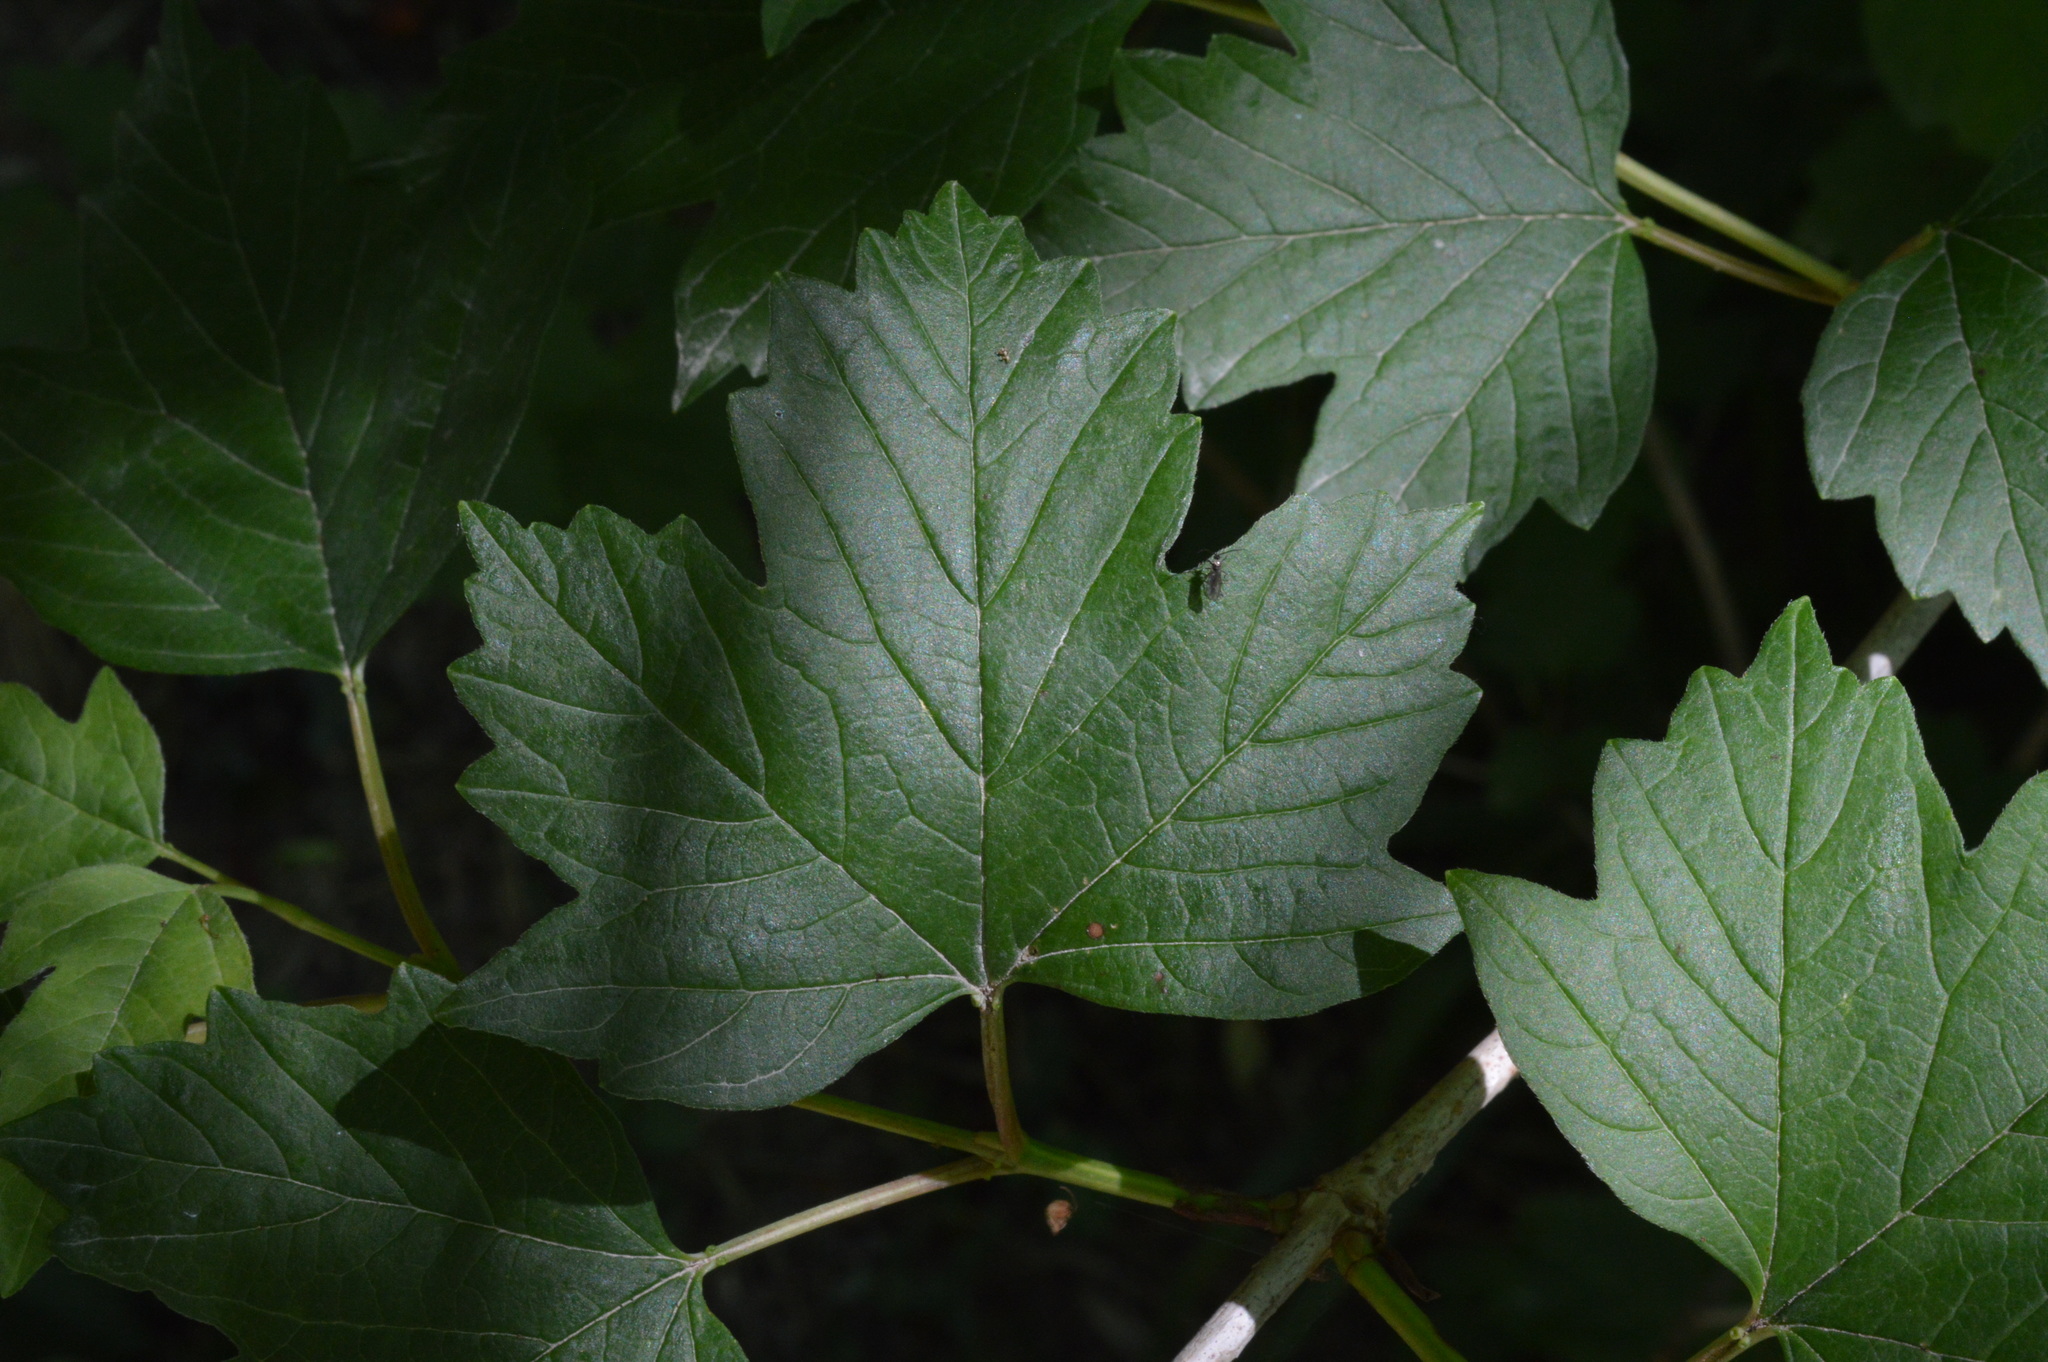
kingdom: Plantae
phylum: Tracheophyta
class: Magnoliopsida
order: Dipsacales
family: Viburnaceae
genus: Viburnum
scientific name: Viburnum opulus
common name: Guelder-rose
